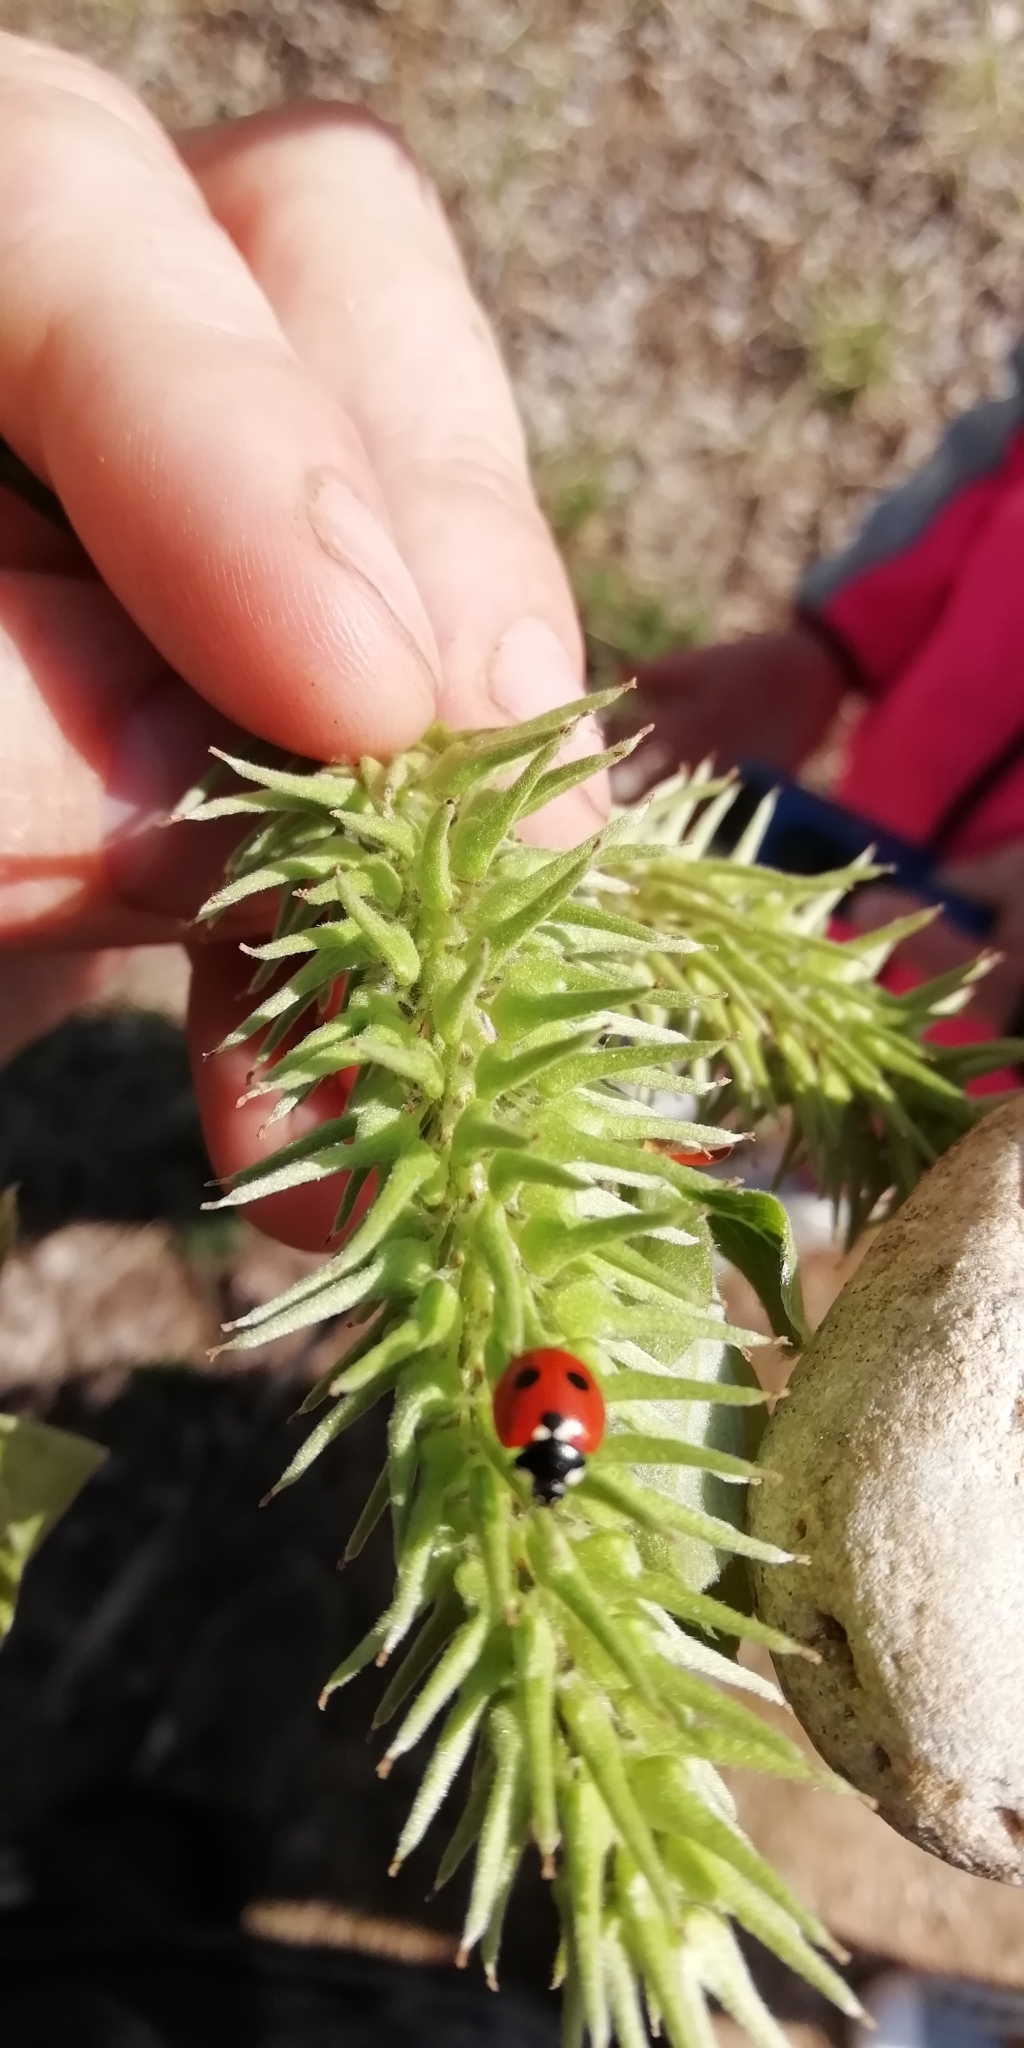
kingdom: Animalia
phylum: Arthropoda
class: Insecta
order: Coleoptera
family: Coccinellidae
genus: Coccinella
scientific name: Coccinella quinquepunctata
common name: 5-spot ladybird
